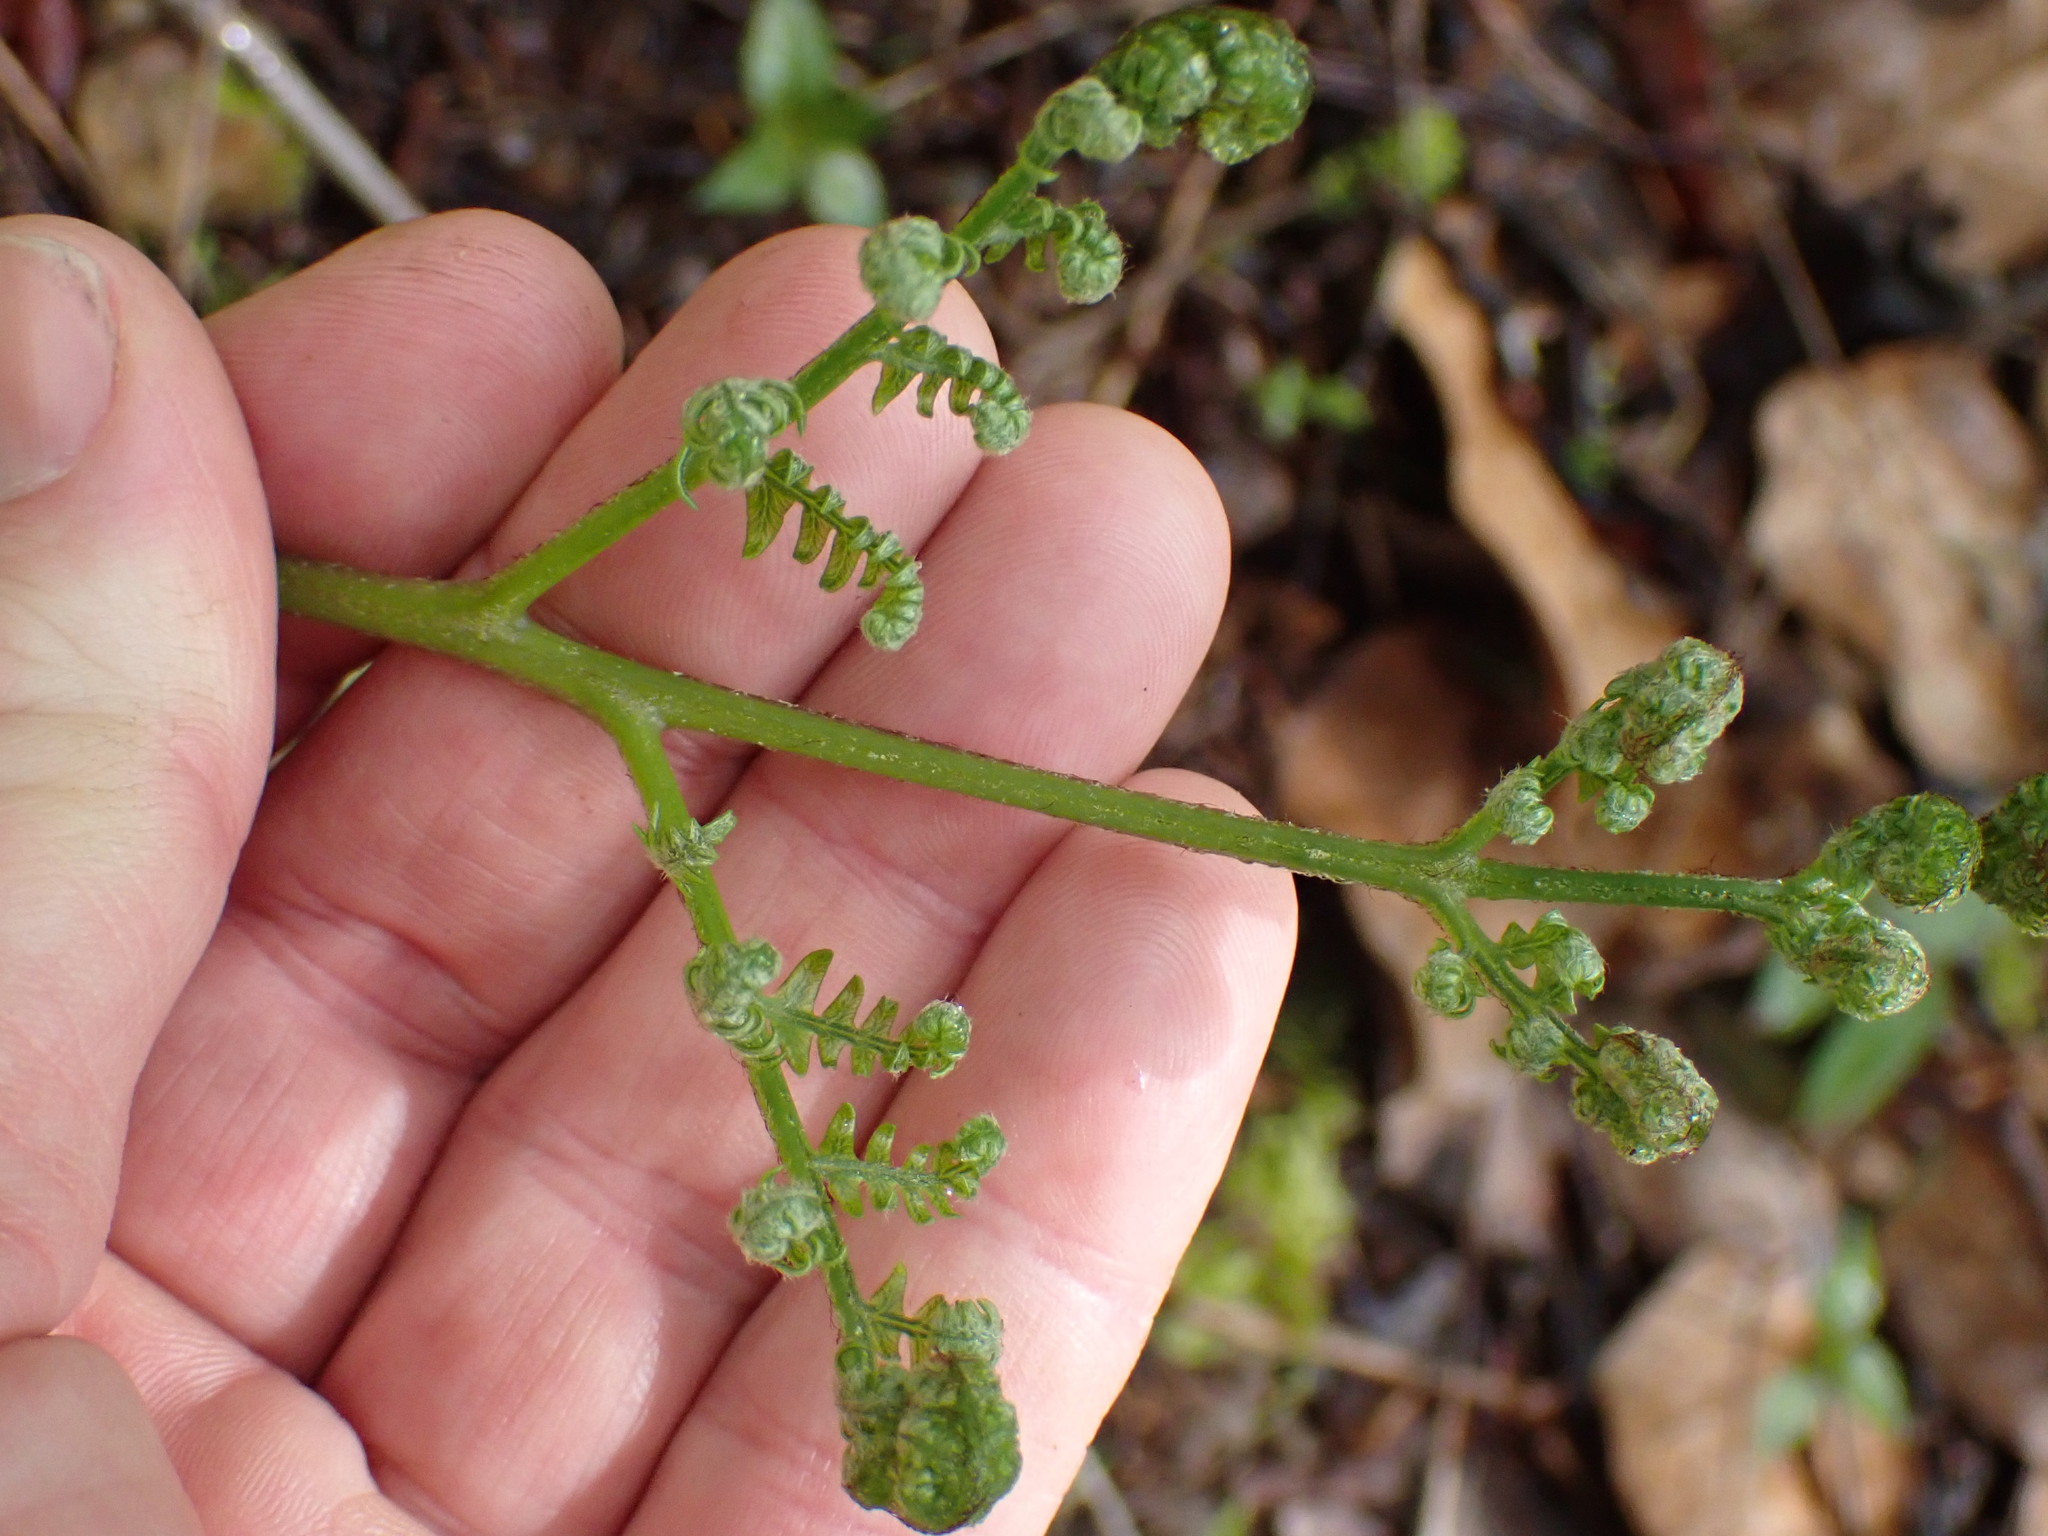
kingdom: Plantae
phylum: Tracheophyta
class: Polypodiopsida
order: Polypodiales
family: Dennstaedtiaceae
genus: Pteridium
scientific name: Pteridium aquilinum
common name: Bracken
